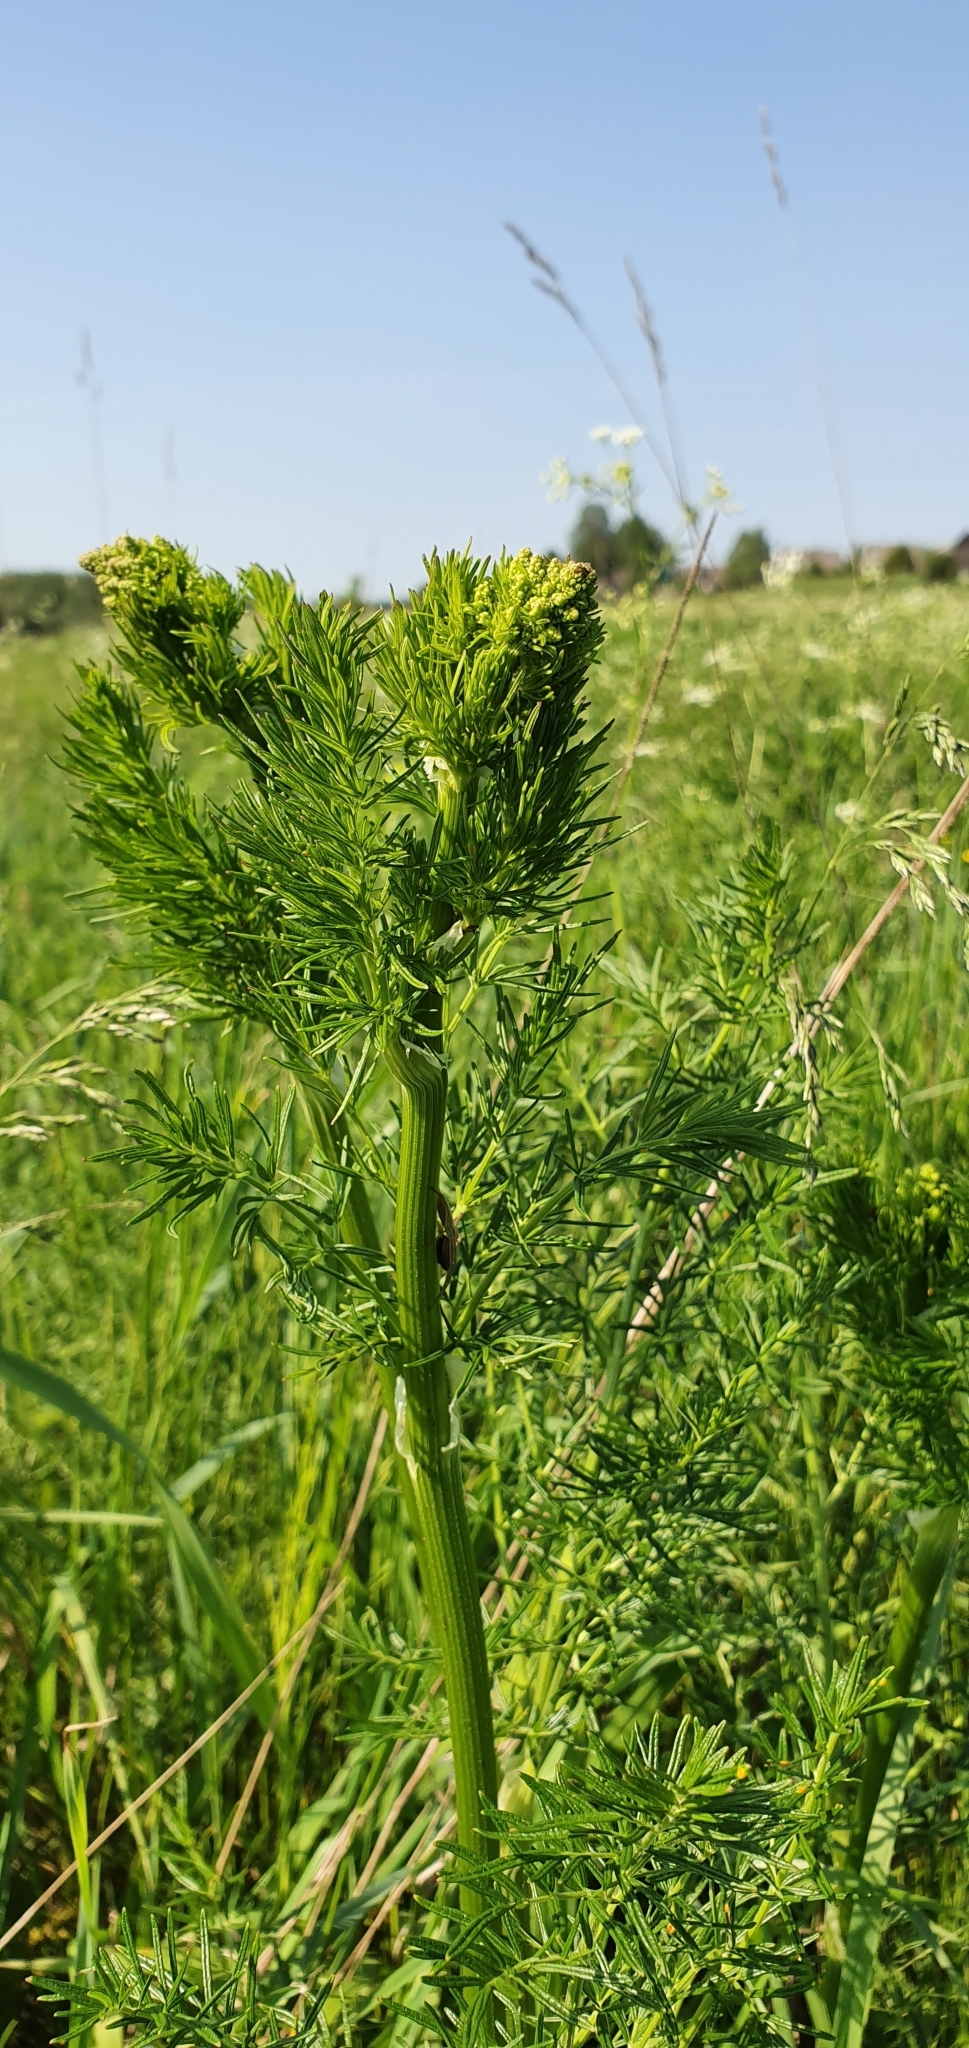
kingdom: Plantae
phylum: Tracheophyta
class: Magnoliopsida
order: Ranunculales
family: Ranunculaceae
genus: Thalictrum
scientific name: Thalictrum lucidum
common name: Shining meadow-rue
